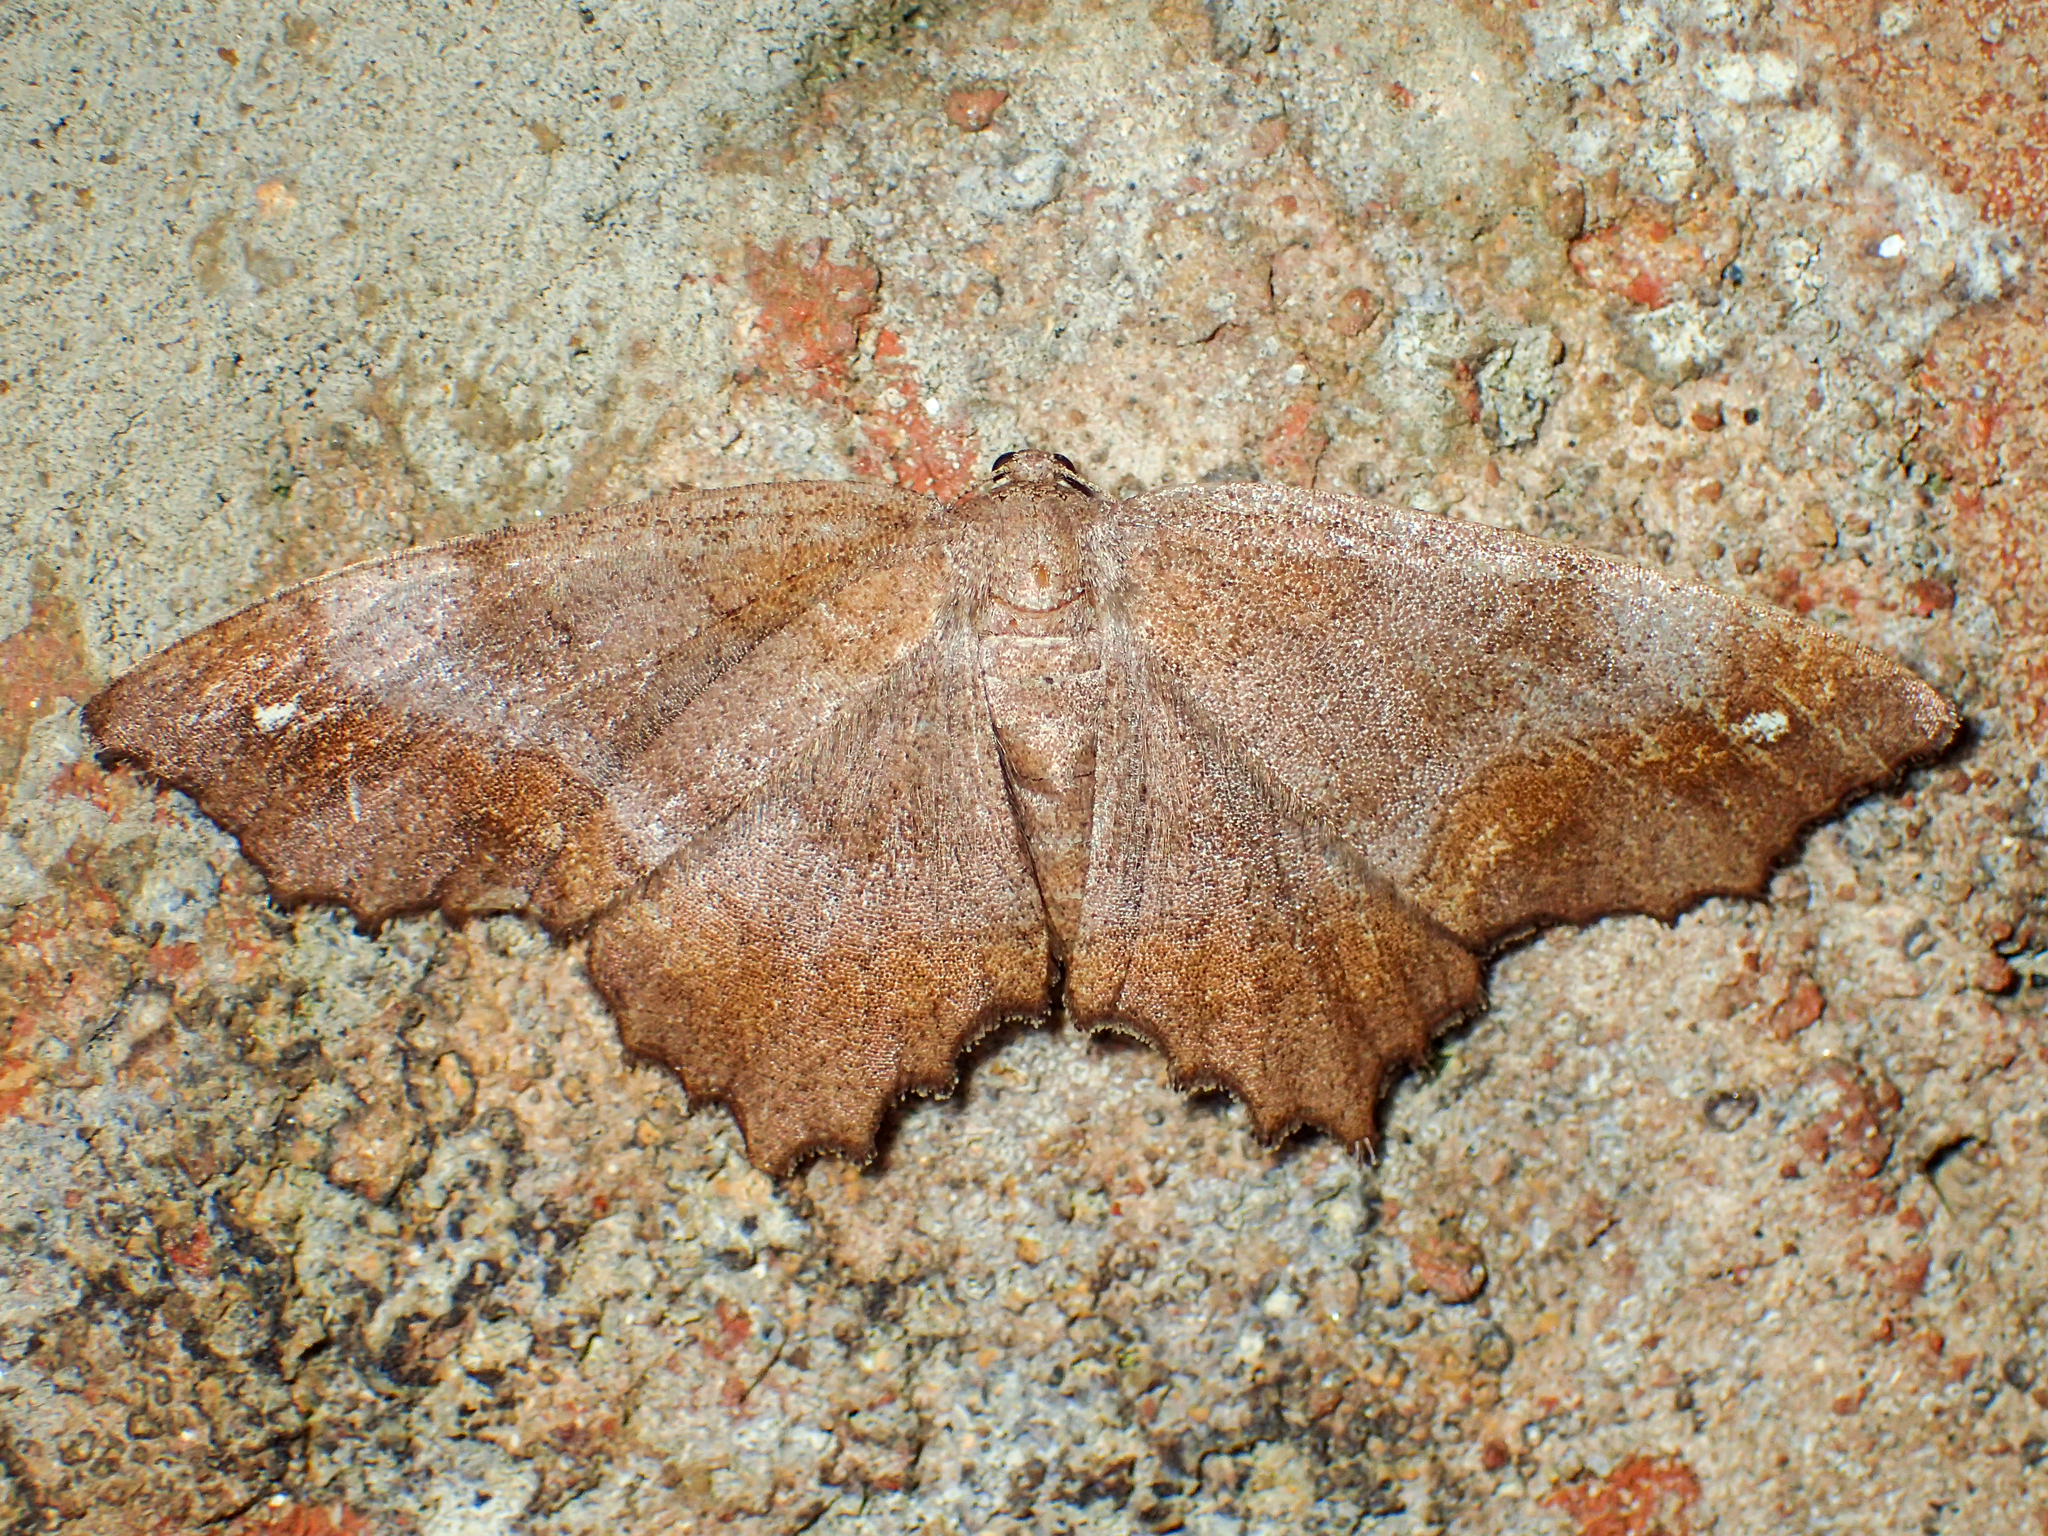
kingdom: Animalia
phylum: Arthropoda
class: Insecta
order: Lepidoptera
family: Geometridae
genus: Hypagyrtis
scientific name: Hypagyrtis unipunctata
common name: One-spotted variant
